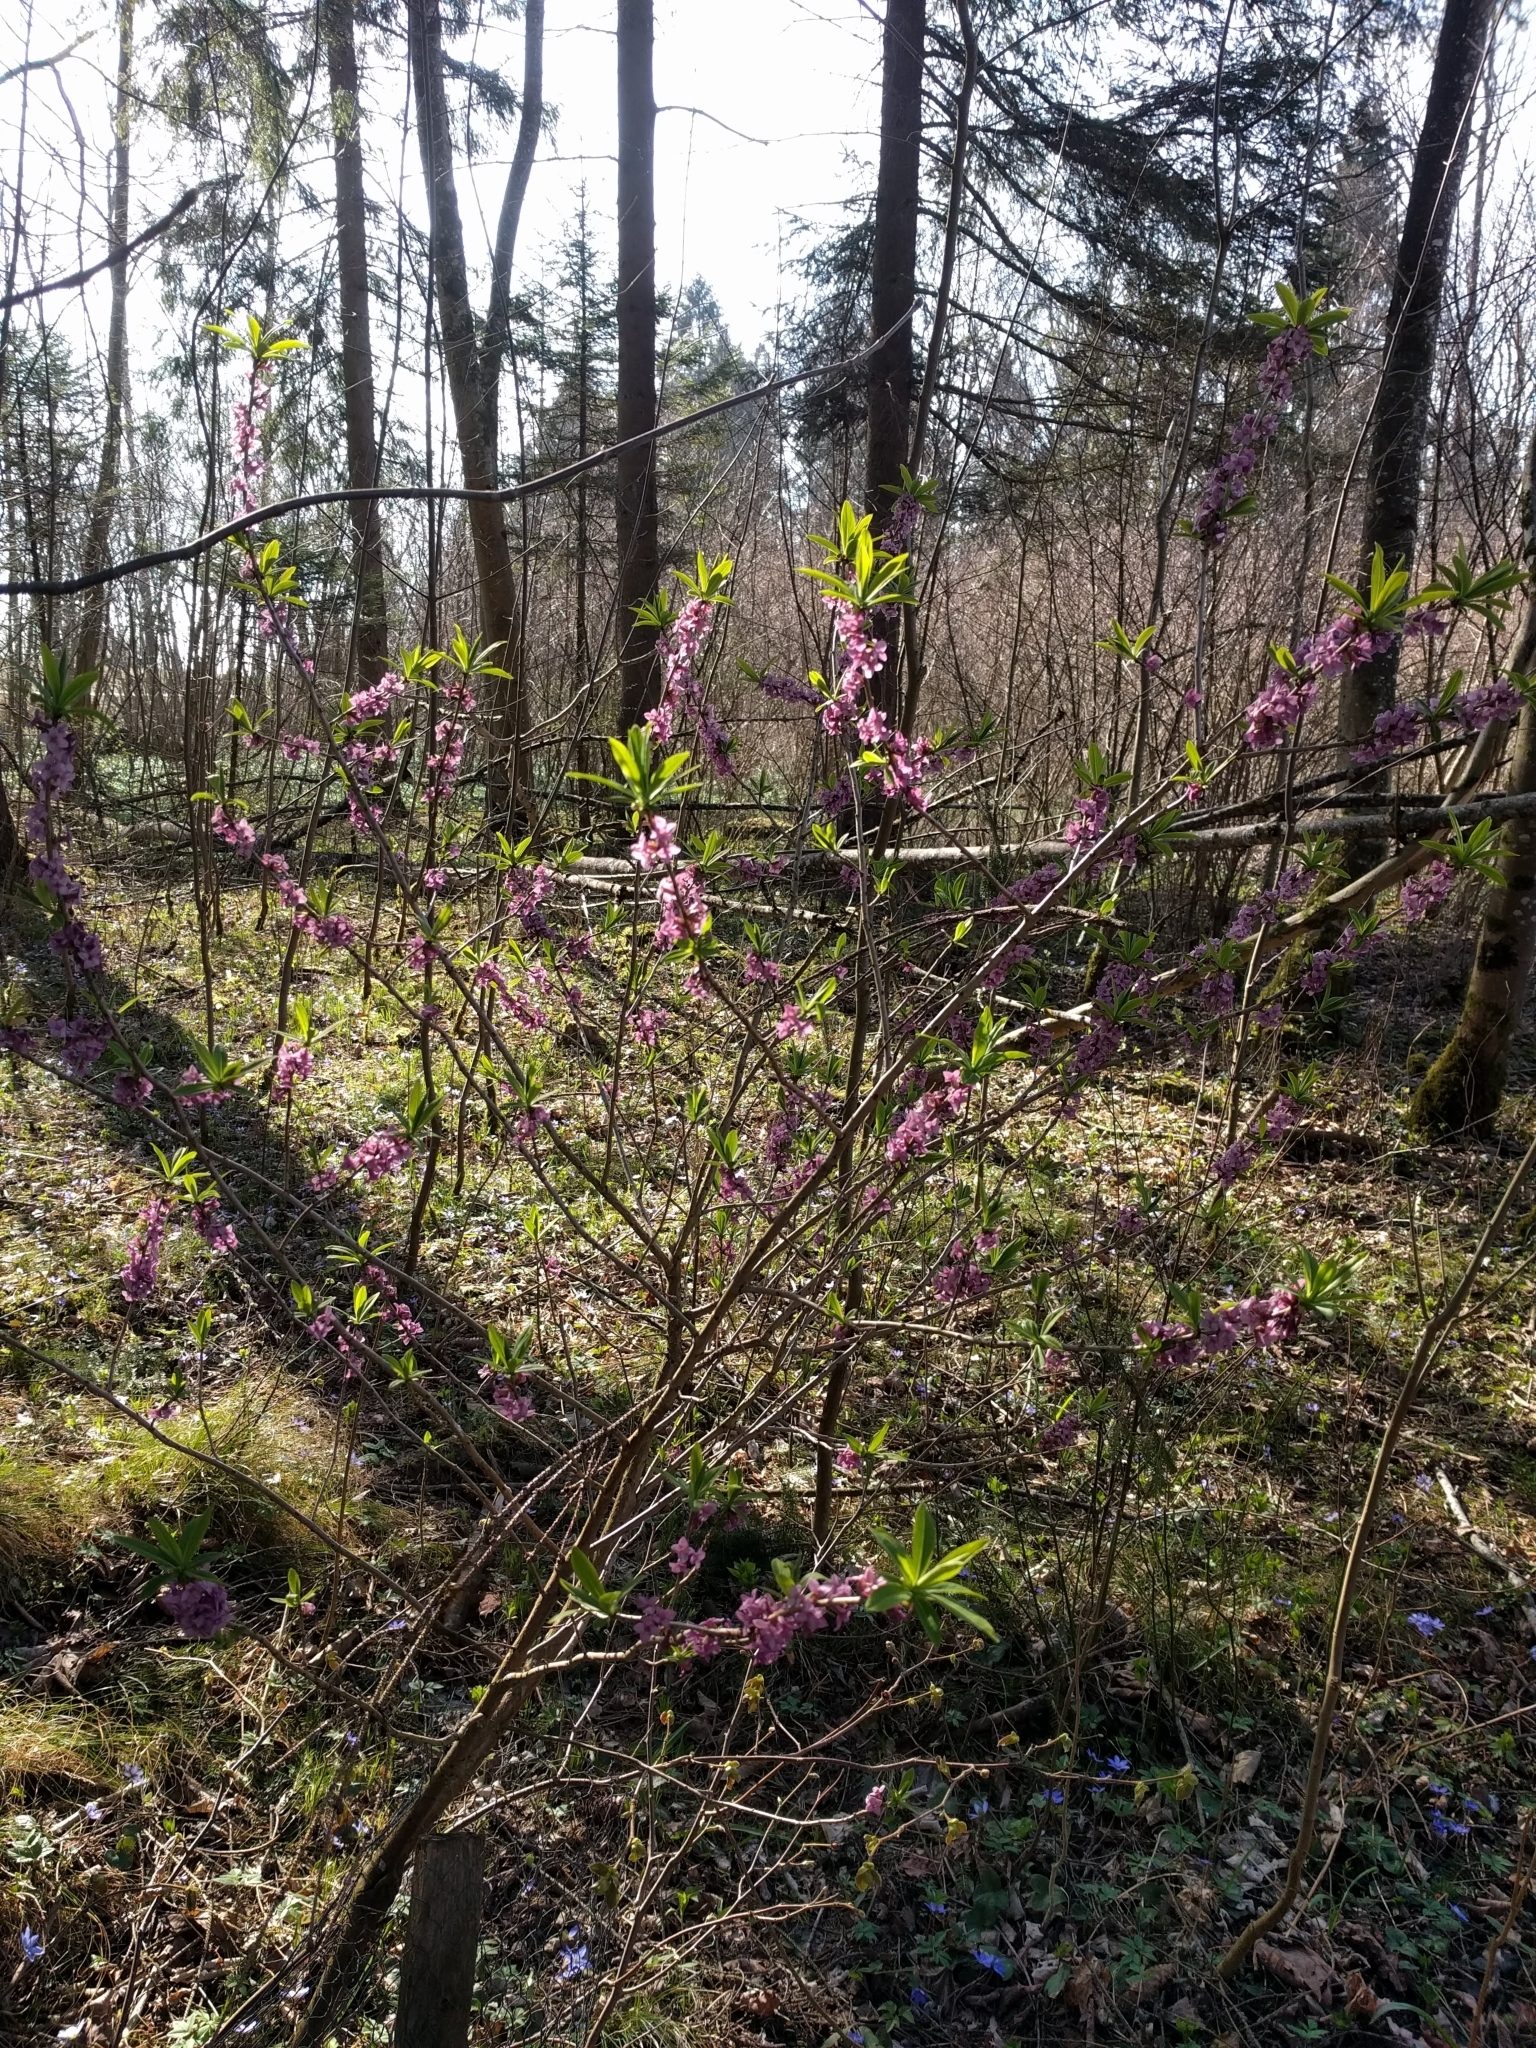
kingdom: Plantae
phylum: Tracheophyta
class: Magnoliopsida
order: Malvales
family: Thymelaeaceae
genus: Daphne
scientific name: Daphne mezereum
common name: Mezereon
